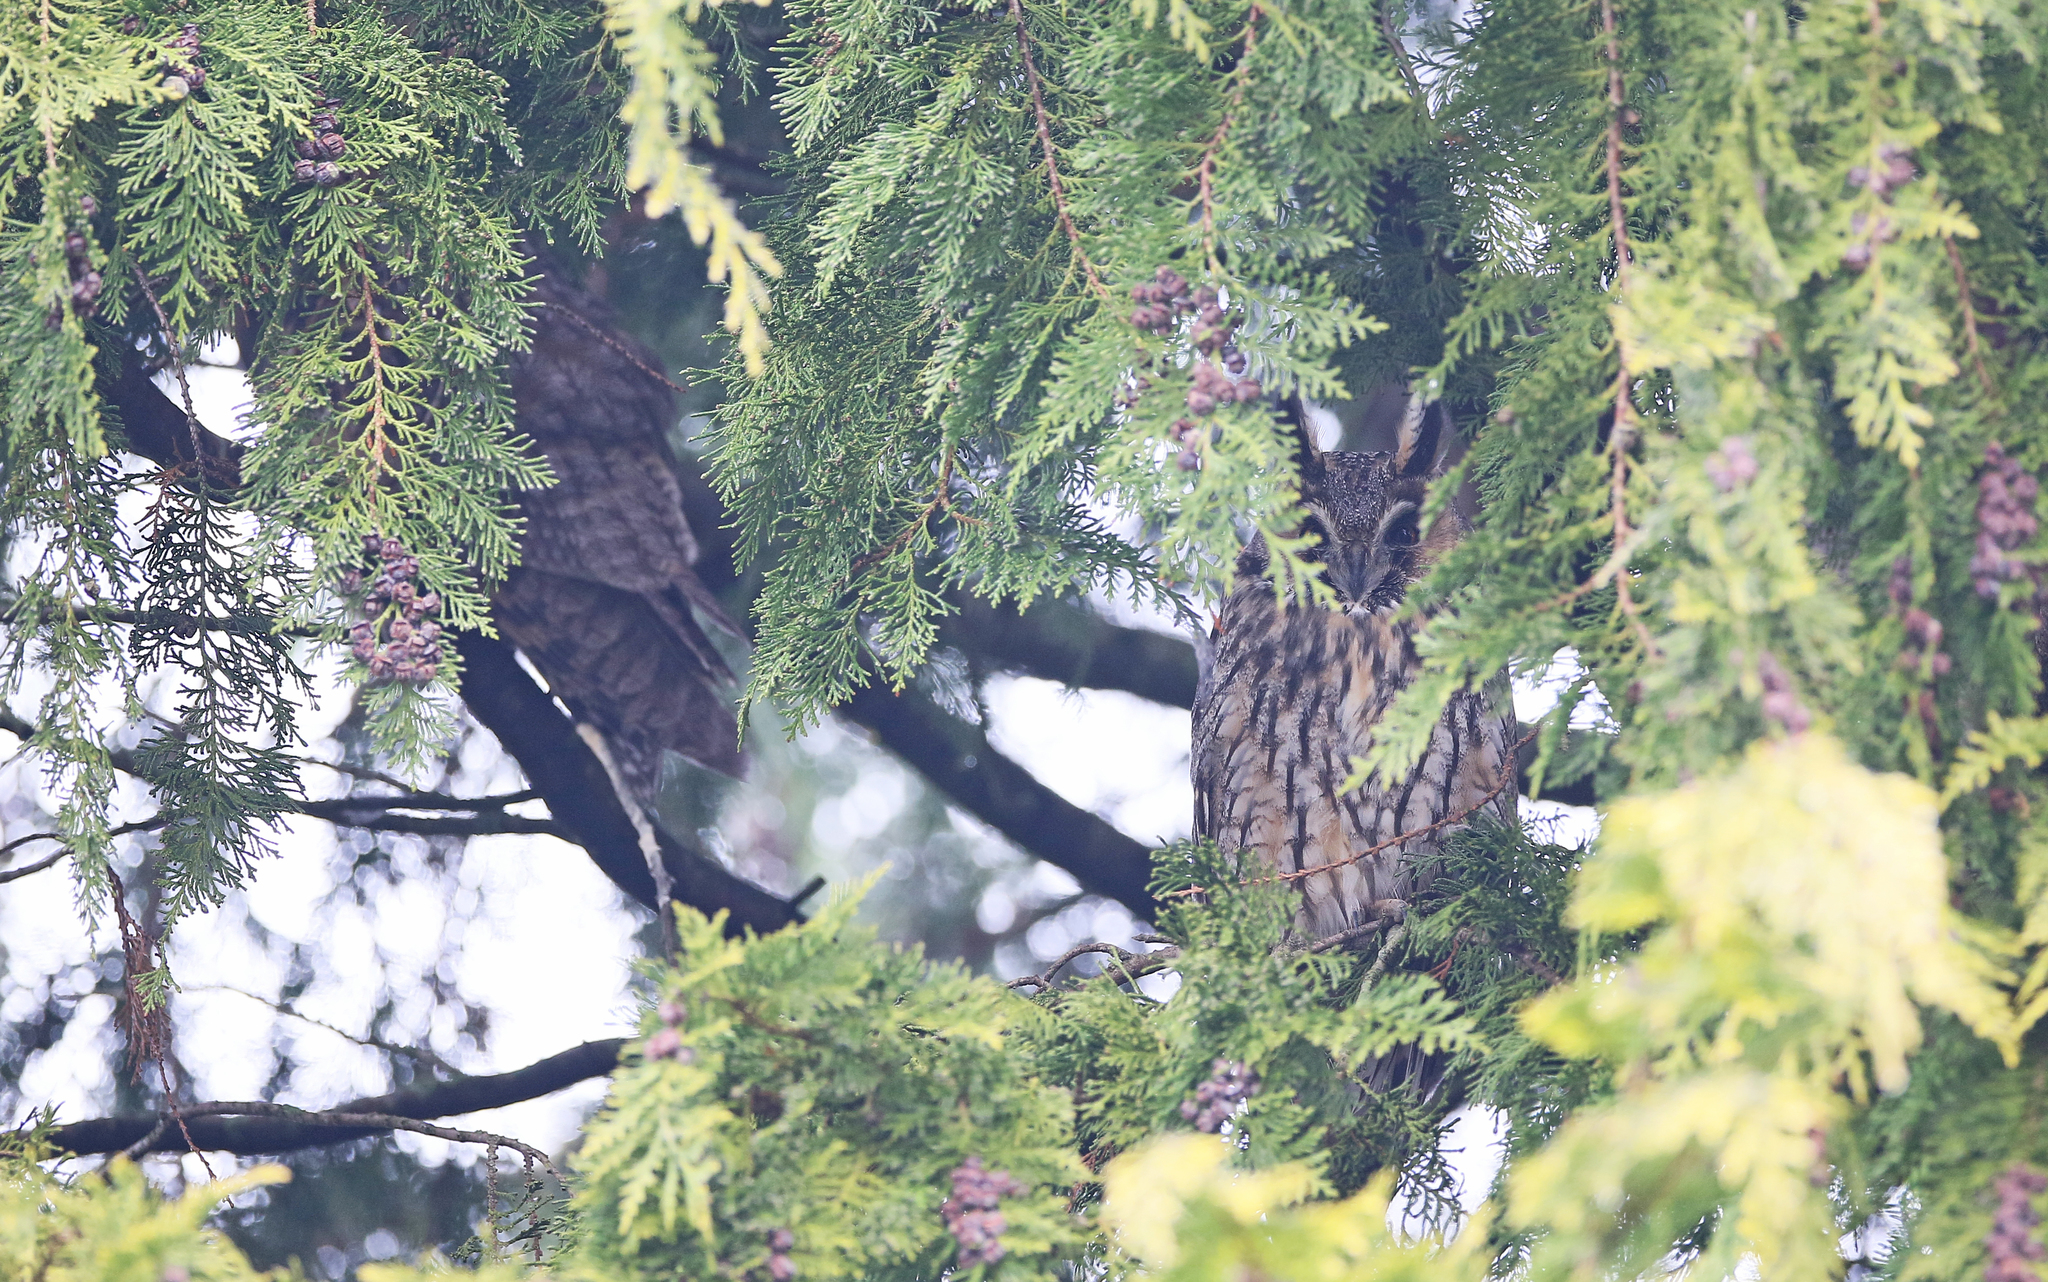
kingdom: Animalia
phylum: Chordata
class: Aves
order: Strigiformes
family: Strigidae
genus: Asio
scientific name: Asio otus
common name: Long-eared owl
